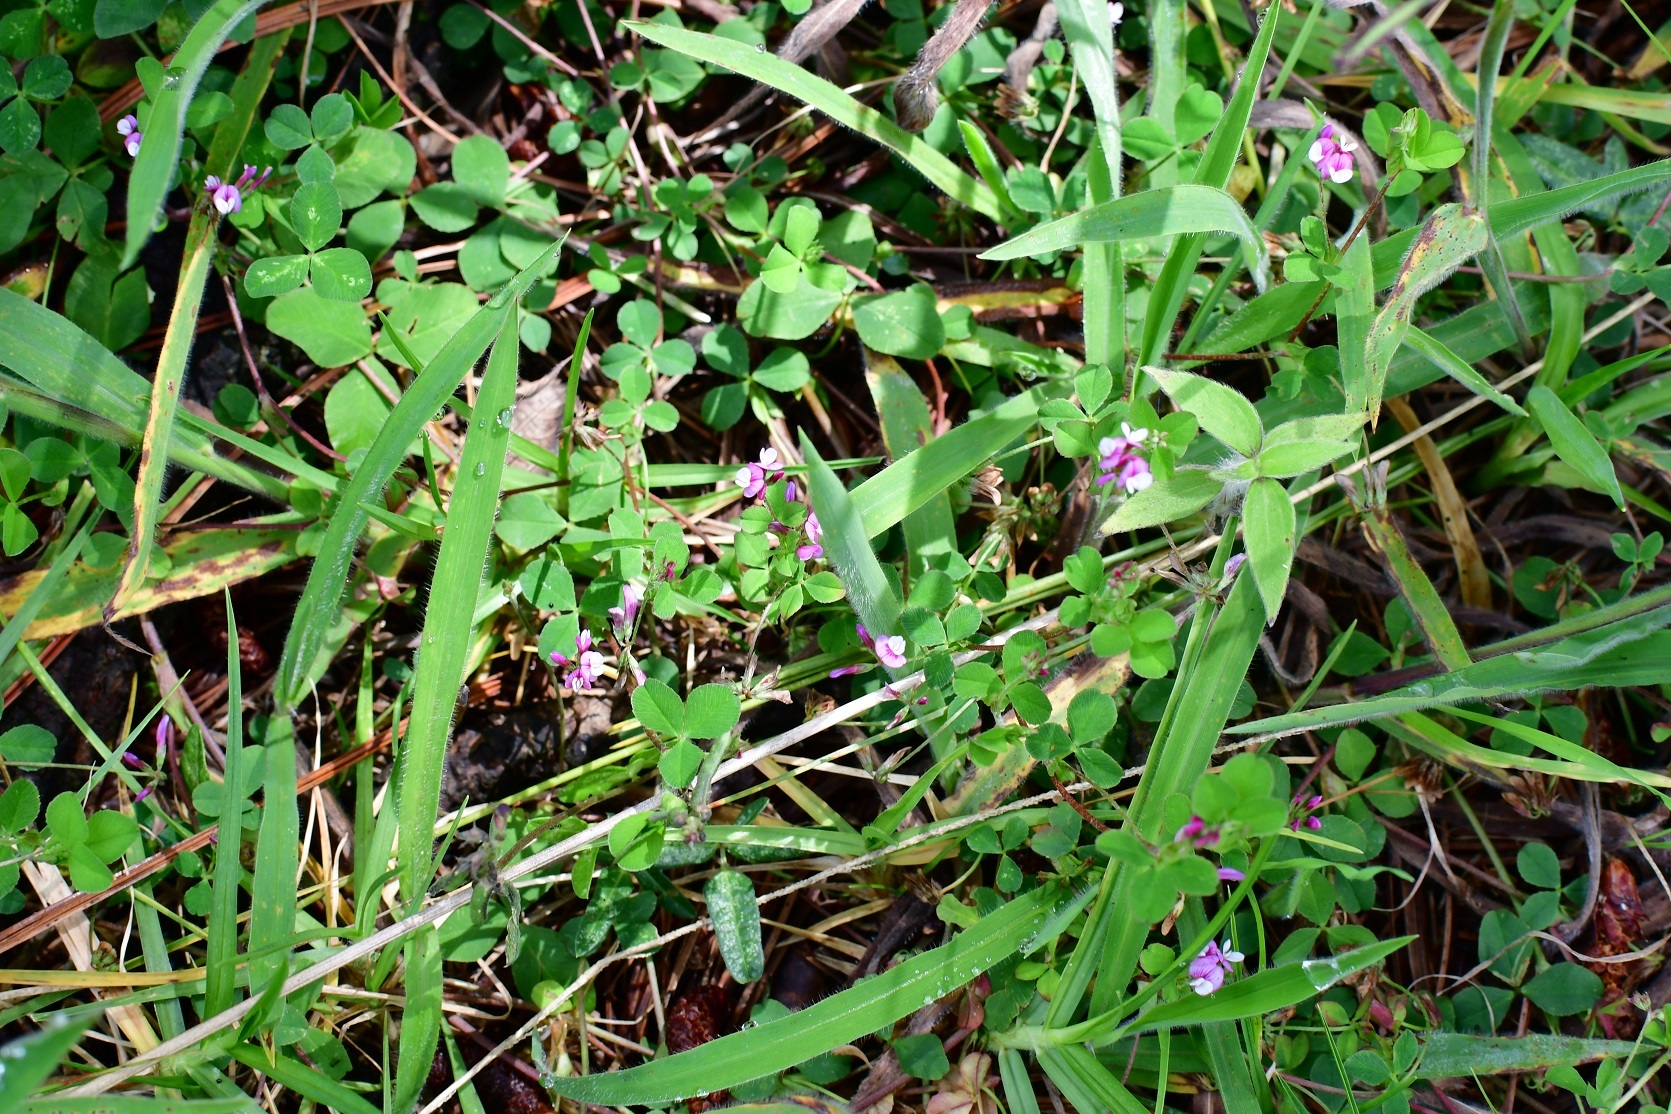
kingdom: Plantae
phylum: Tracheophyta
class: Magnoliopsida
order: Fabales
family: Fabaceae
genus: Trifolium
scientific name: Trifolium amabile
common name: Aztec clover
